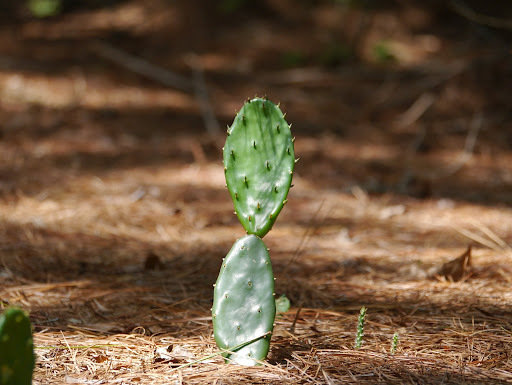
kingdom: Plantae
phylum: Tracheophyta
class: Magnoliopsida
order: Caryophyllales
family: Cactaceae
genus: Opuntia
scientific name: Opuntia humifusa
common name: Eastern prickly-pear
